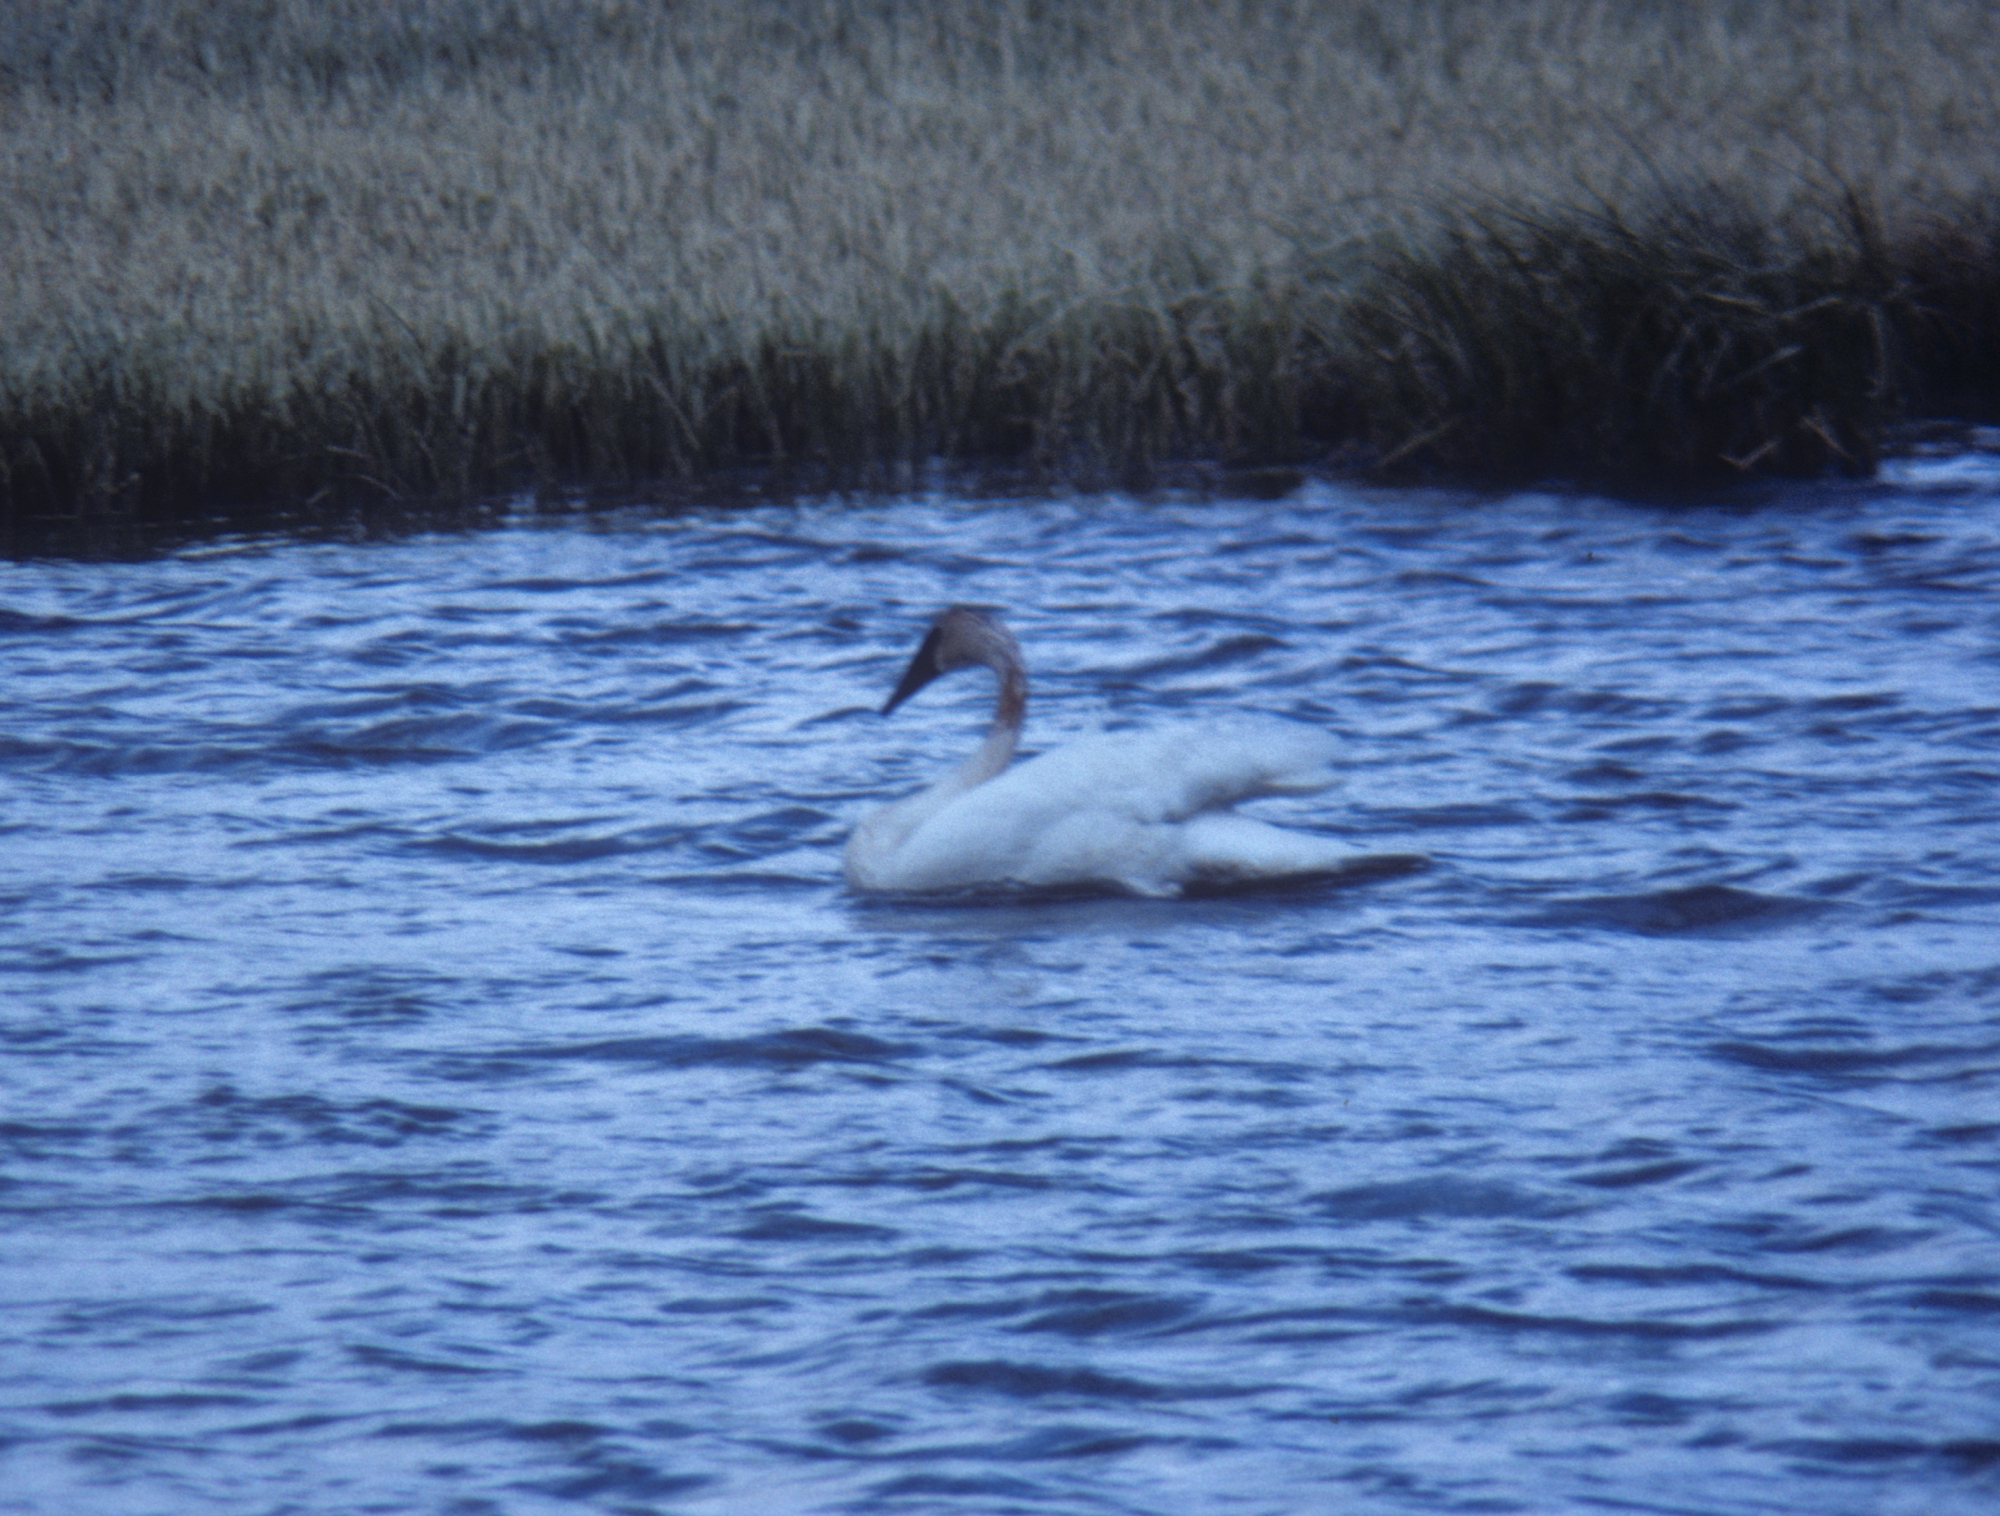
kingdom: Animalia
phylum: Chordata
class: Aves
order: Anseriformes
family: Anatidae
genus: Cygnus
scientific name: Cygnus buccinator
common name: Trumpeter swan
